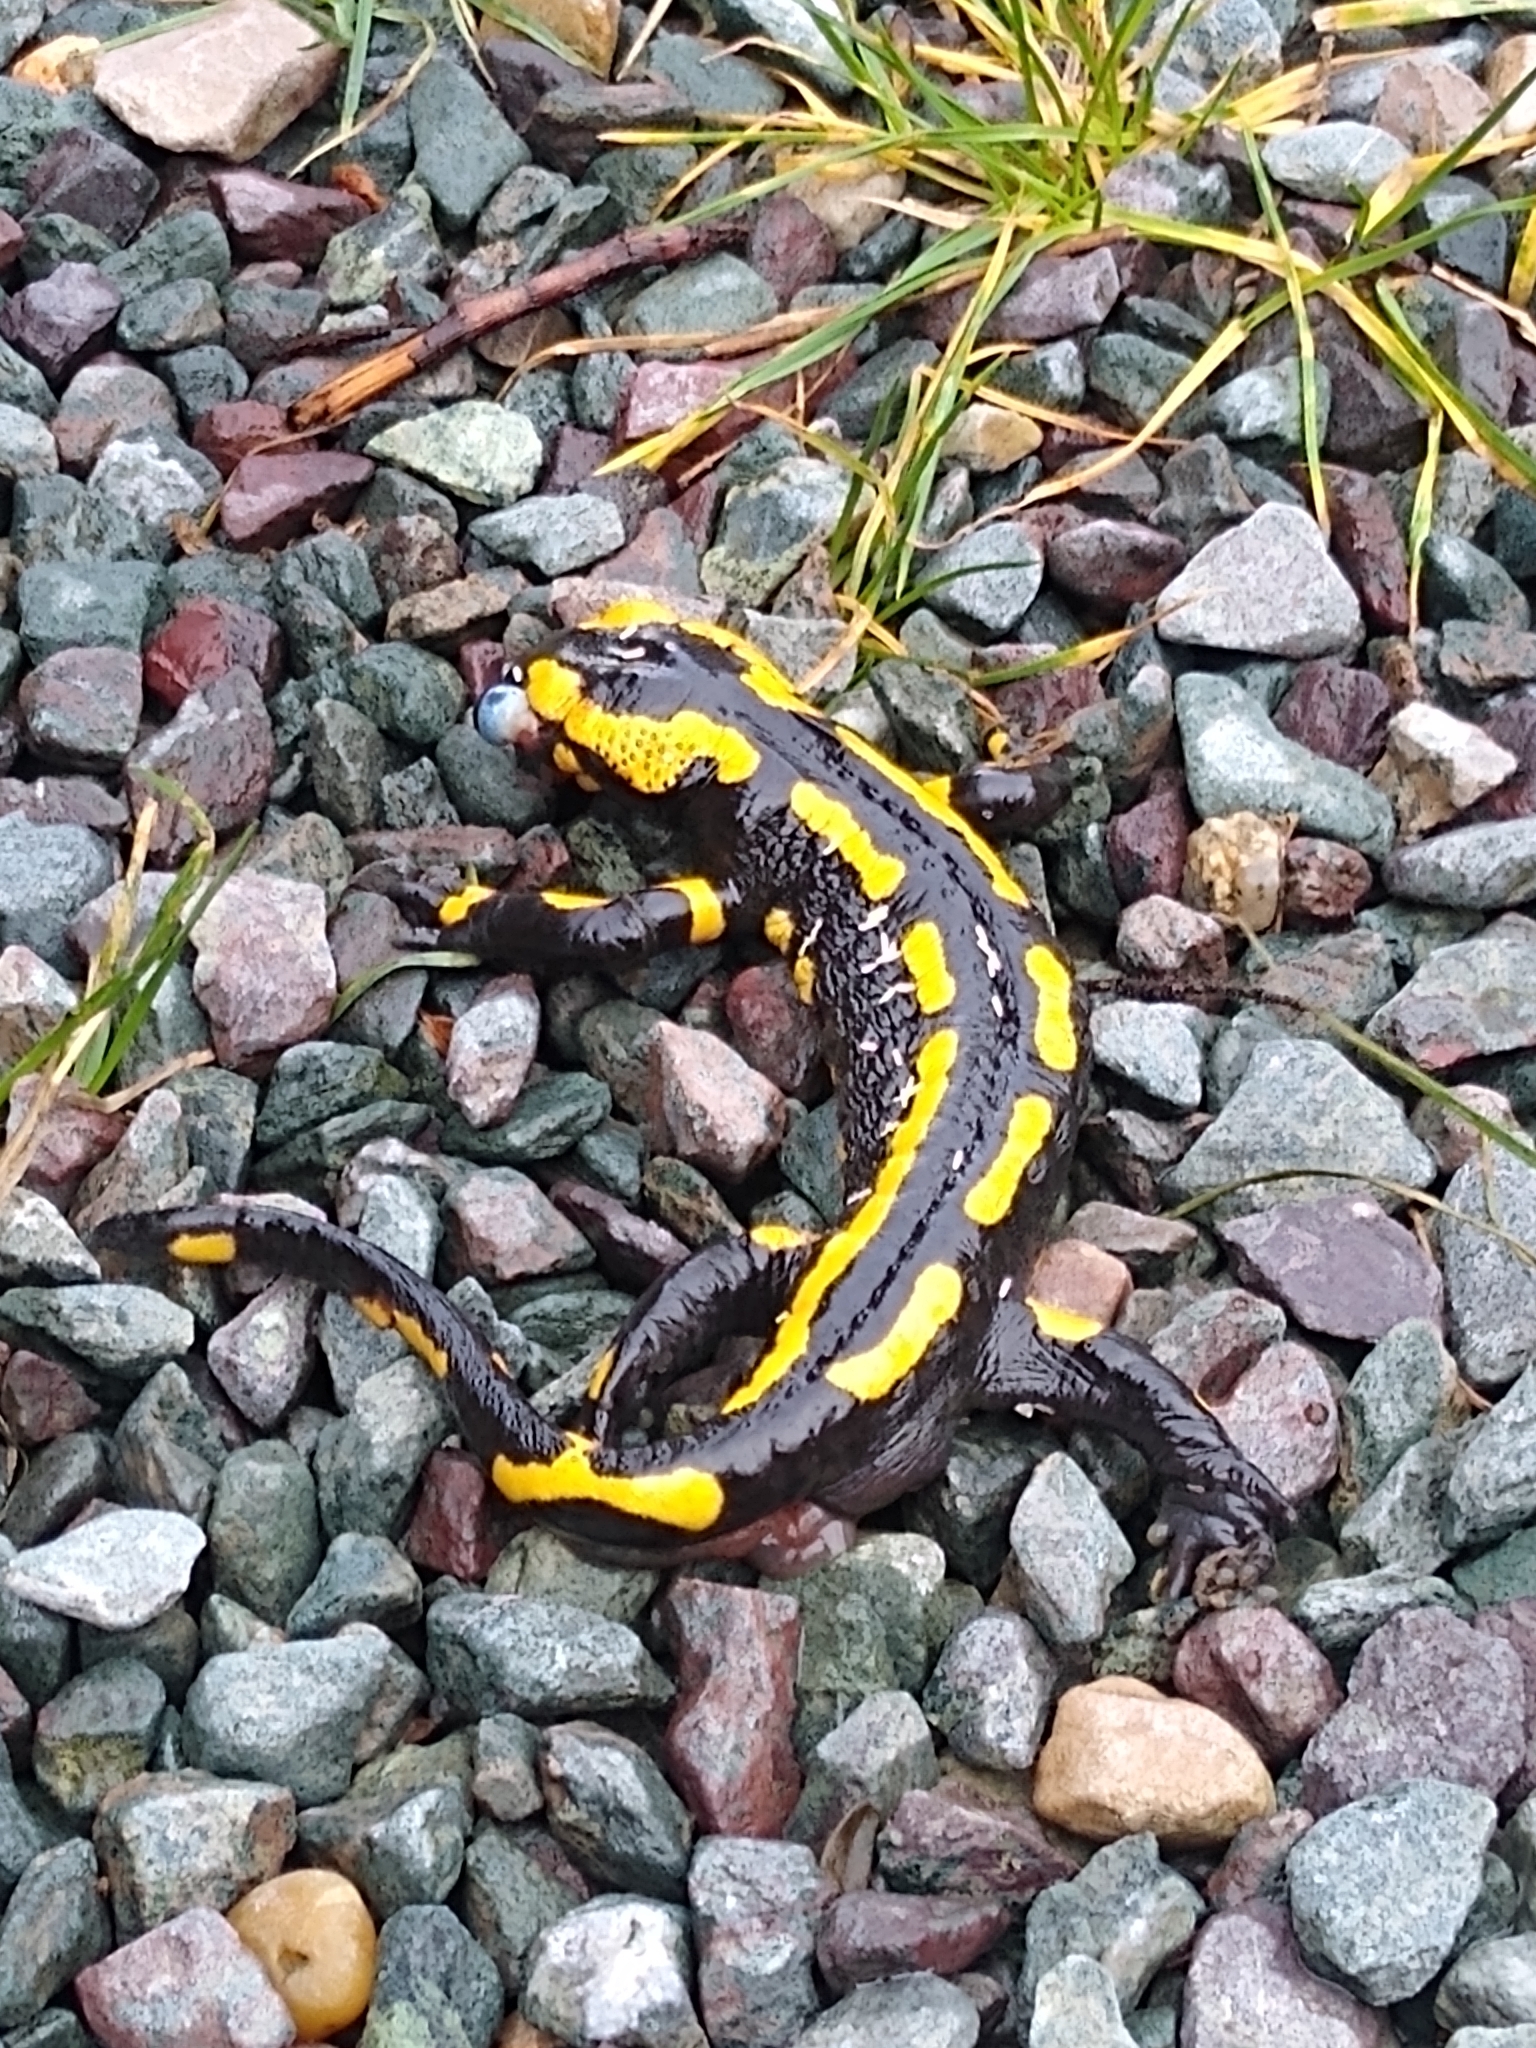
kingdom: Animalia
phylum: Chordata
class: Amphibia
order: Caudata
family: Salamandridae
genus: Salamandra
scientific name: Salamandra salamandra
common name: Fire salamander
